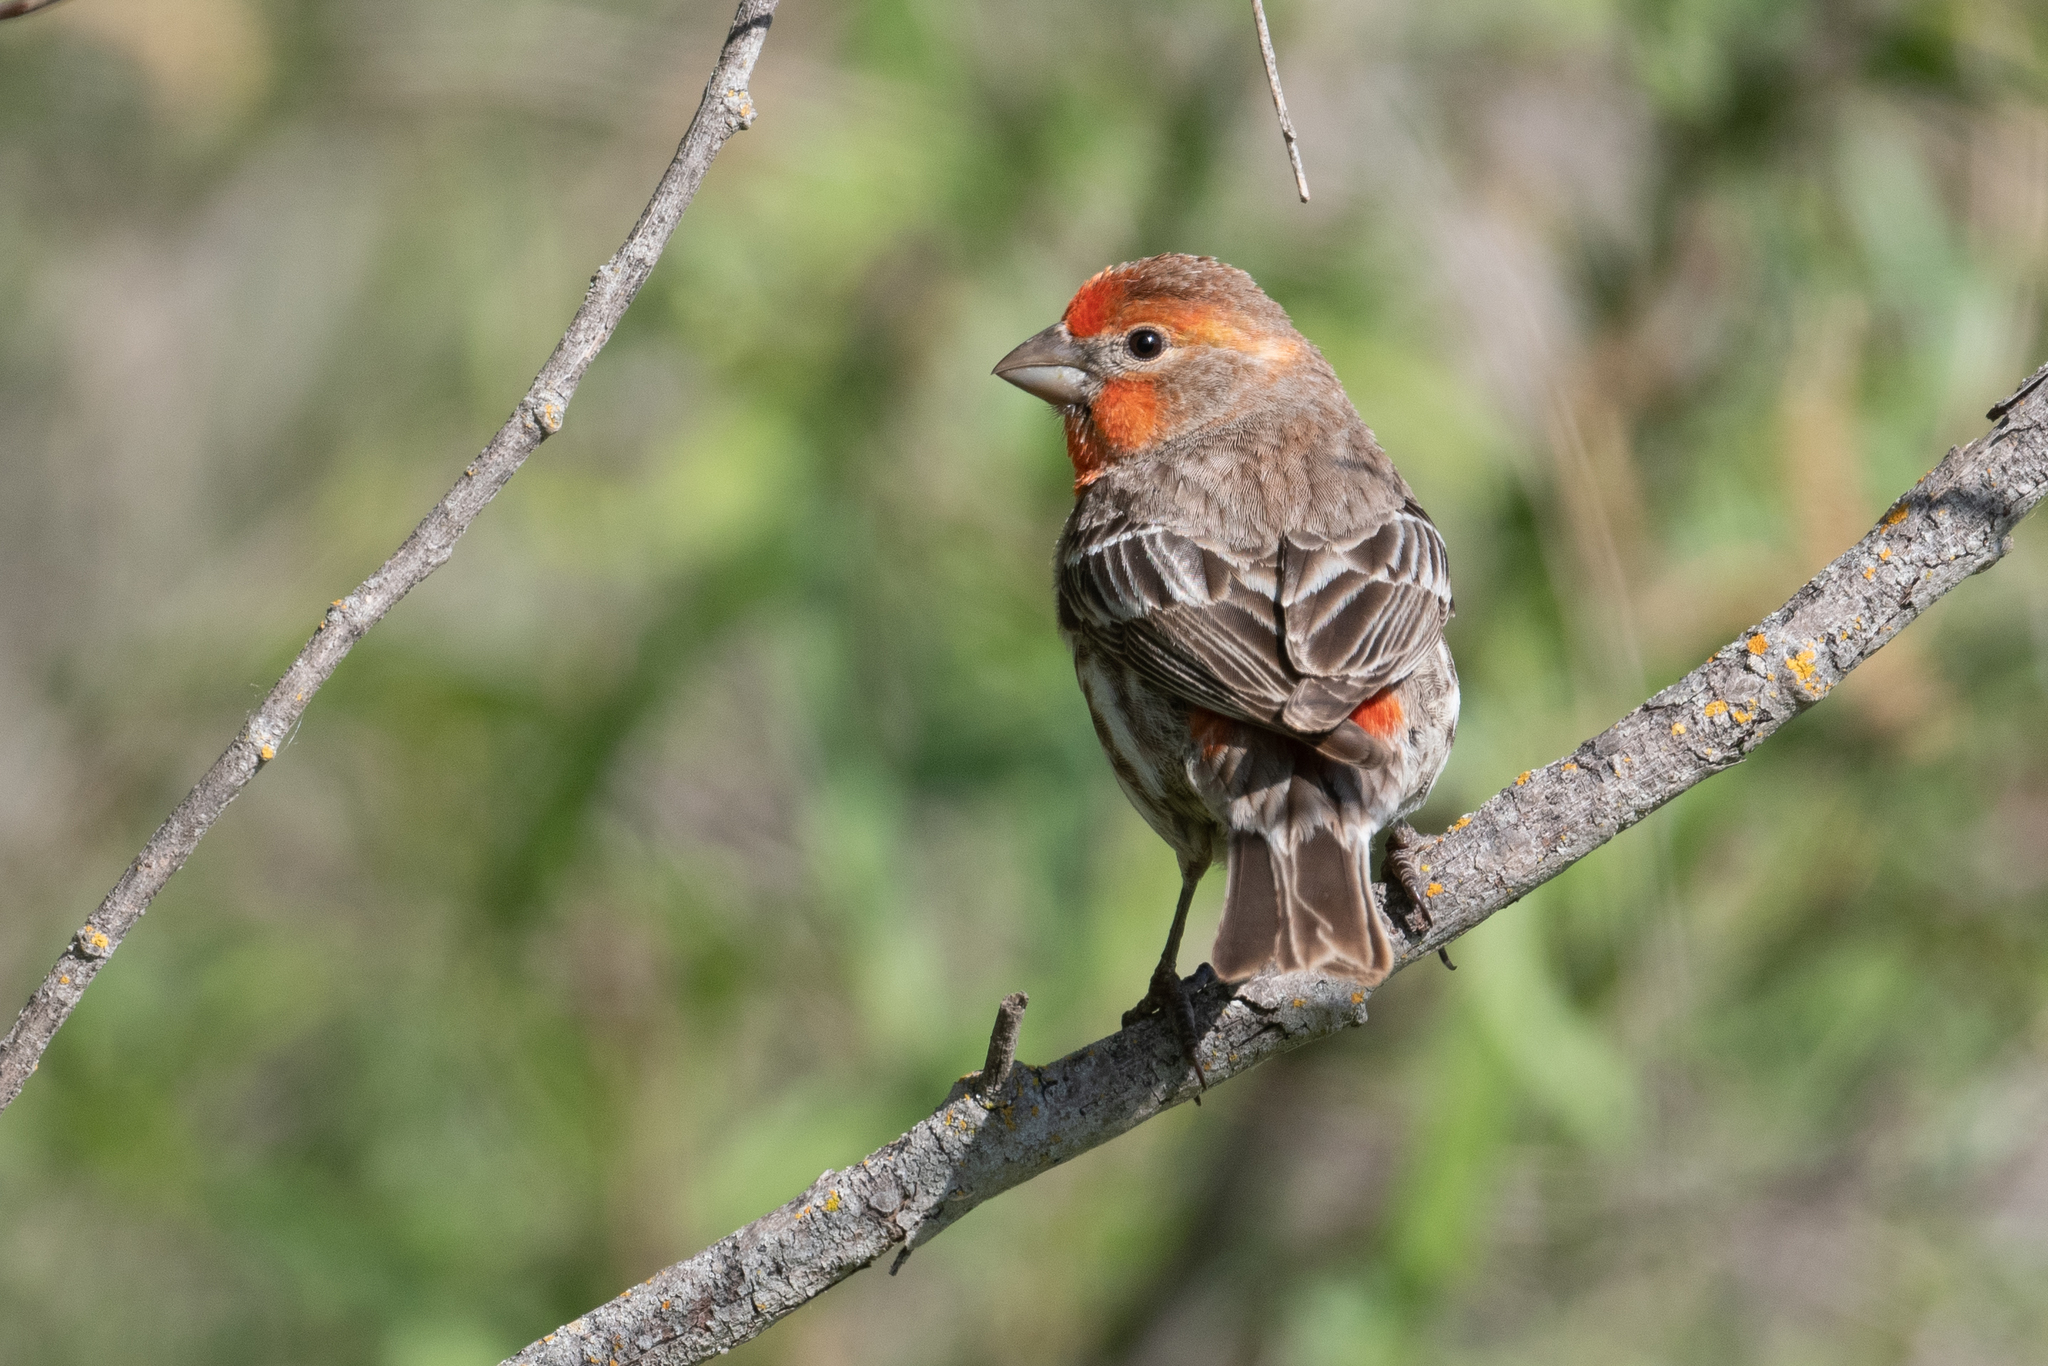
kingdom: Animalia
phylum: Chordata
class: Aves
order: Passeriformes
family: Fringillidae
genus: Haemorhous
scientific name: Haemorhous mexicanus
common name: House finch
